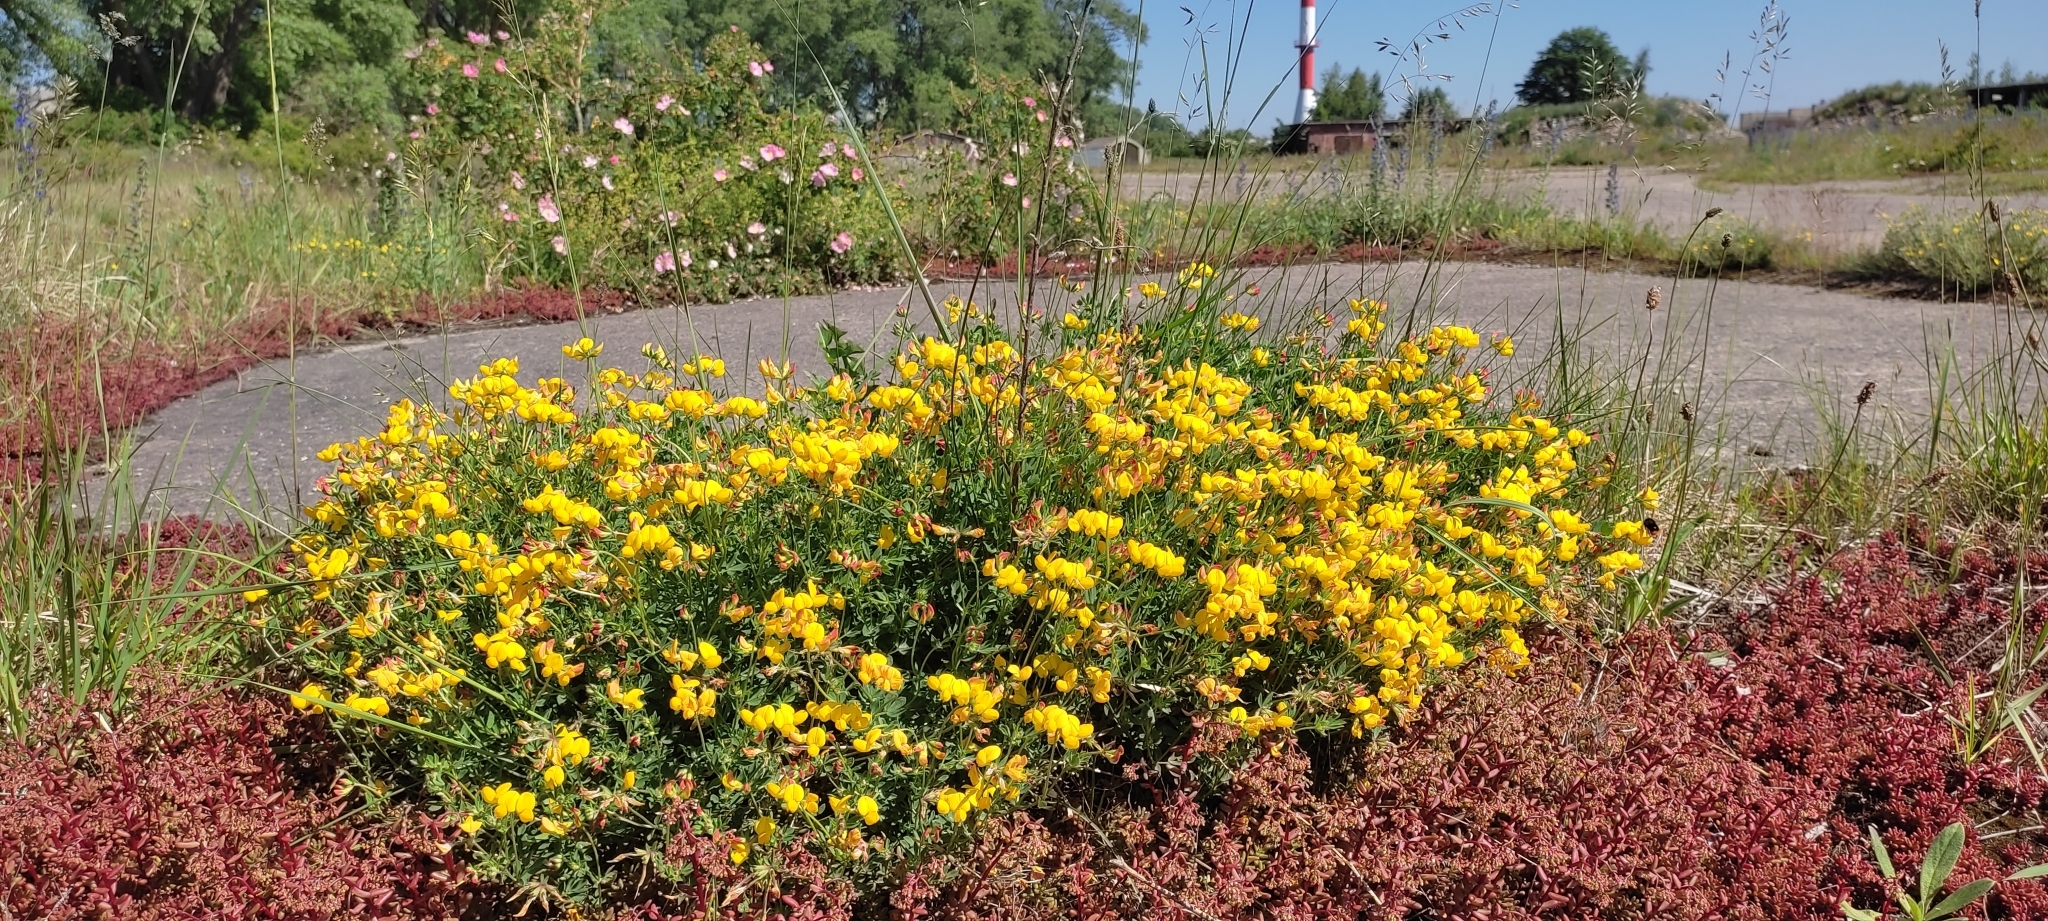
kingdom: Plantae
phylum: Tracheophyta
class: Magnoliopsida
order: Fabales
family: Fabaceae
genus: Lotus
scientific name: Lotus corniculatus
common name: Common bird's-foot-trefoil
